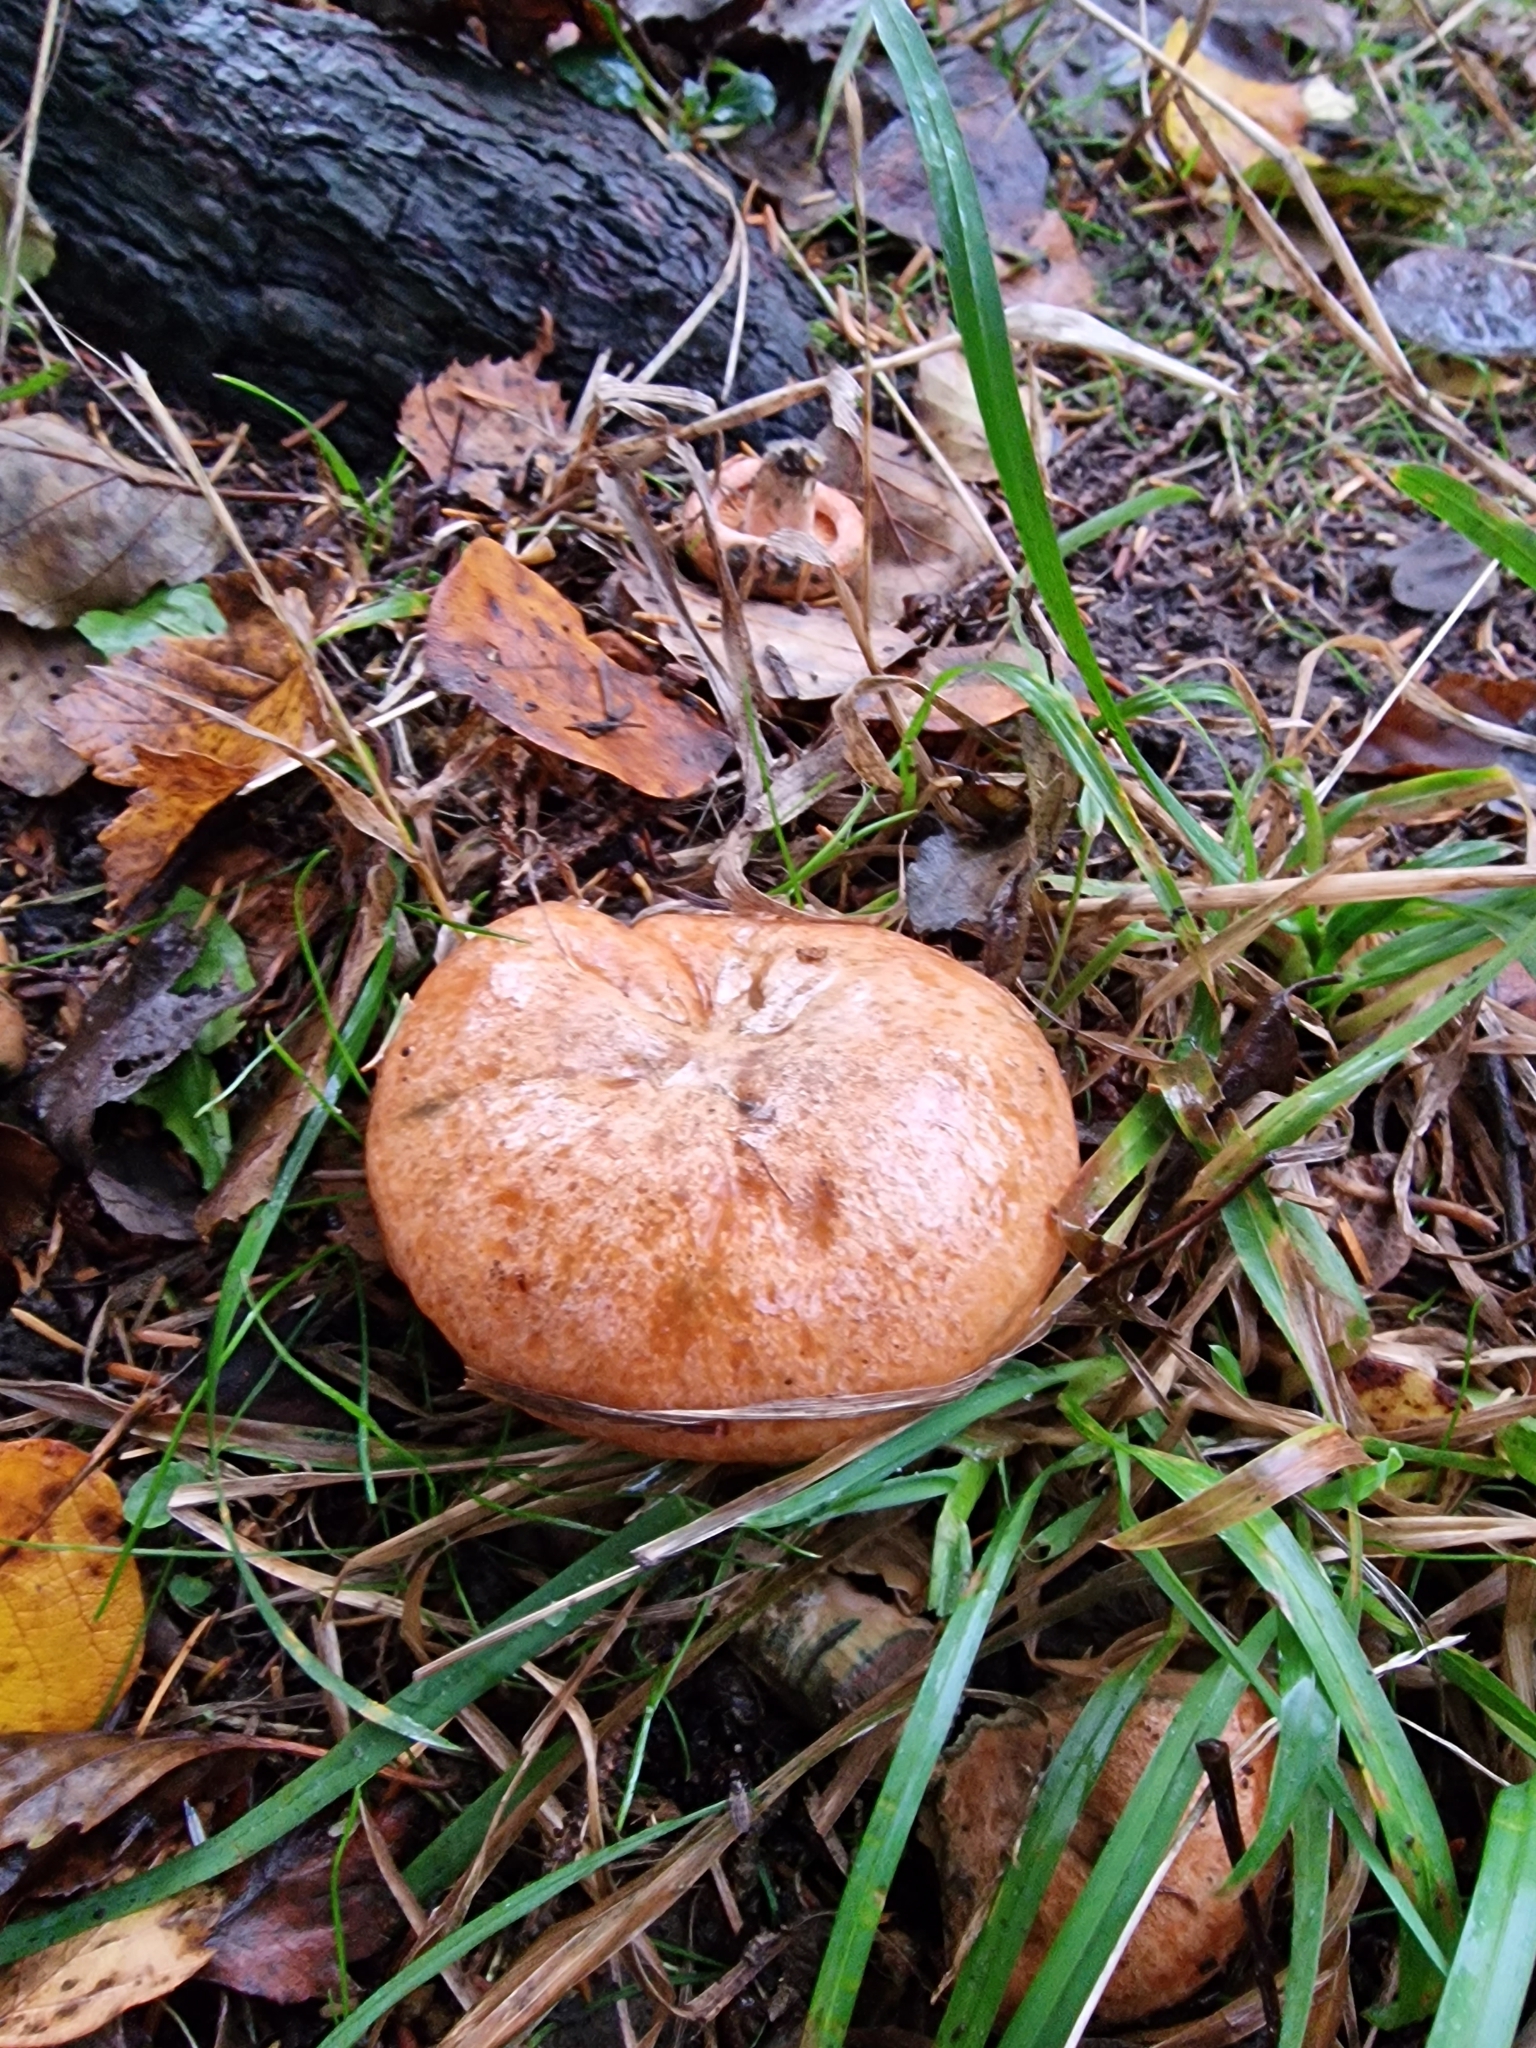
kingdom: Fungi
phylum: Basidiomycota
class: Agaricomycetes
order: Russulales
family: Russulaceae
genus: Lactarius
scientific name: Lactarius deliciosus
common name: Saffron milk-cap
